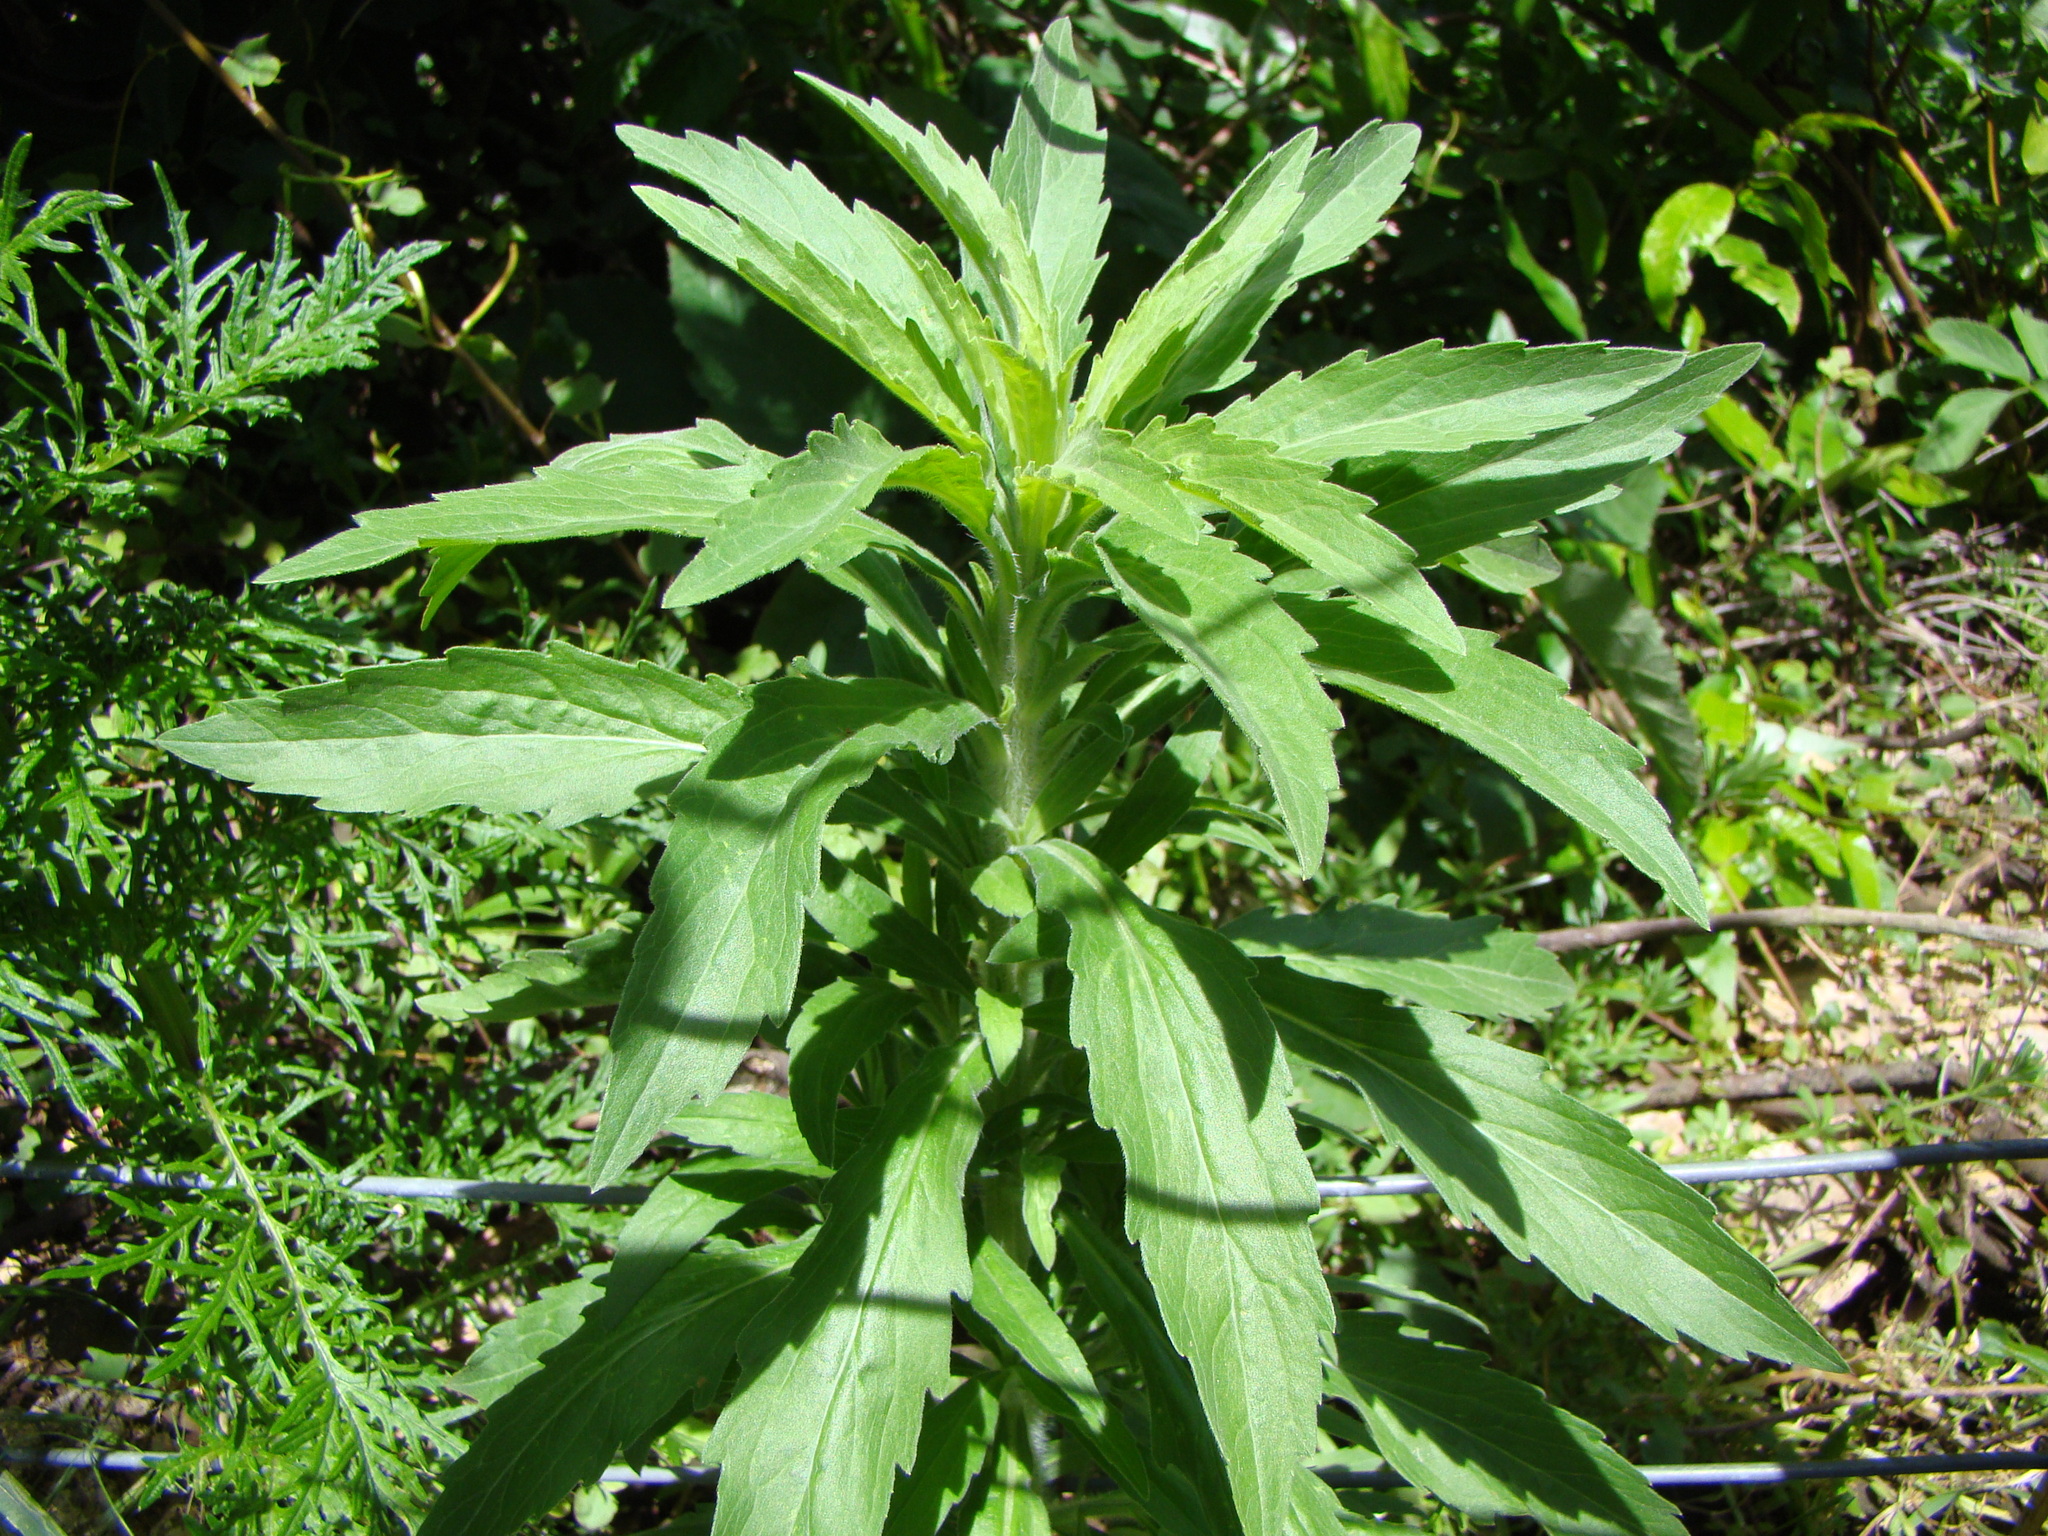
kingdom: Plantae
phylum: Tracheophyta
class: Magnoliopsida
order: Asterales
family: Asteraceae
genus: Erigeron
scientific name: Erigeron sumatrensis
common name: Daisy
